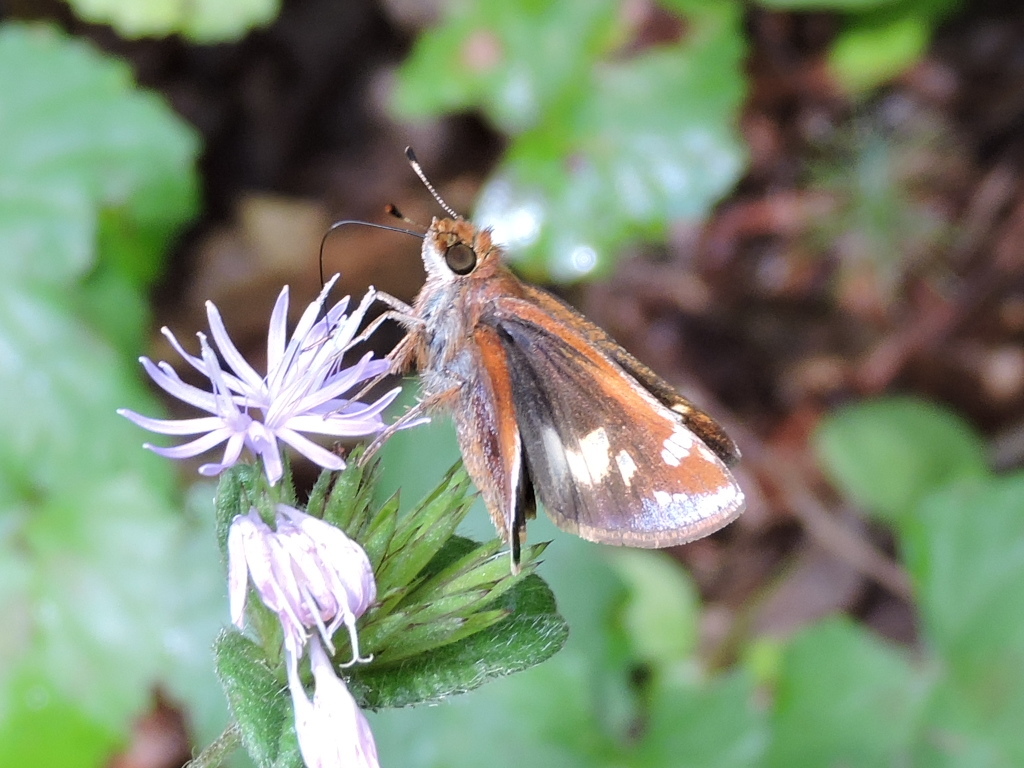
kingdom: Animalia
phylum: Arthropoda
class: Insecta
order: Lepidoptera
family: Hesperiidae
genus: Lon
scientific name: Lon zabulon
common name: Zabulon skipper
